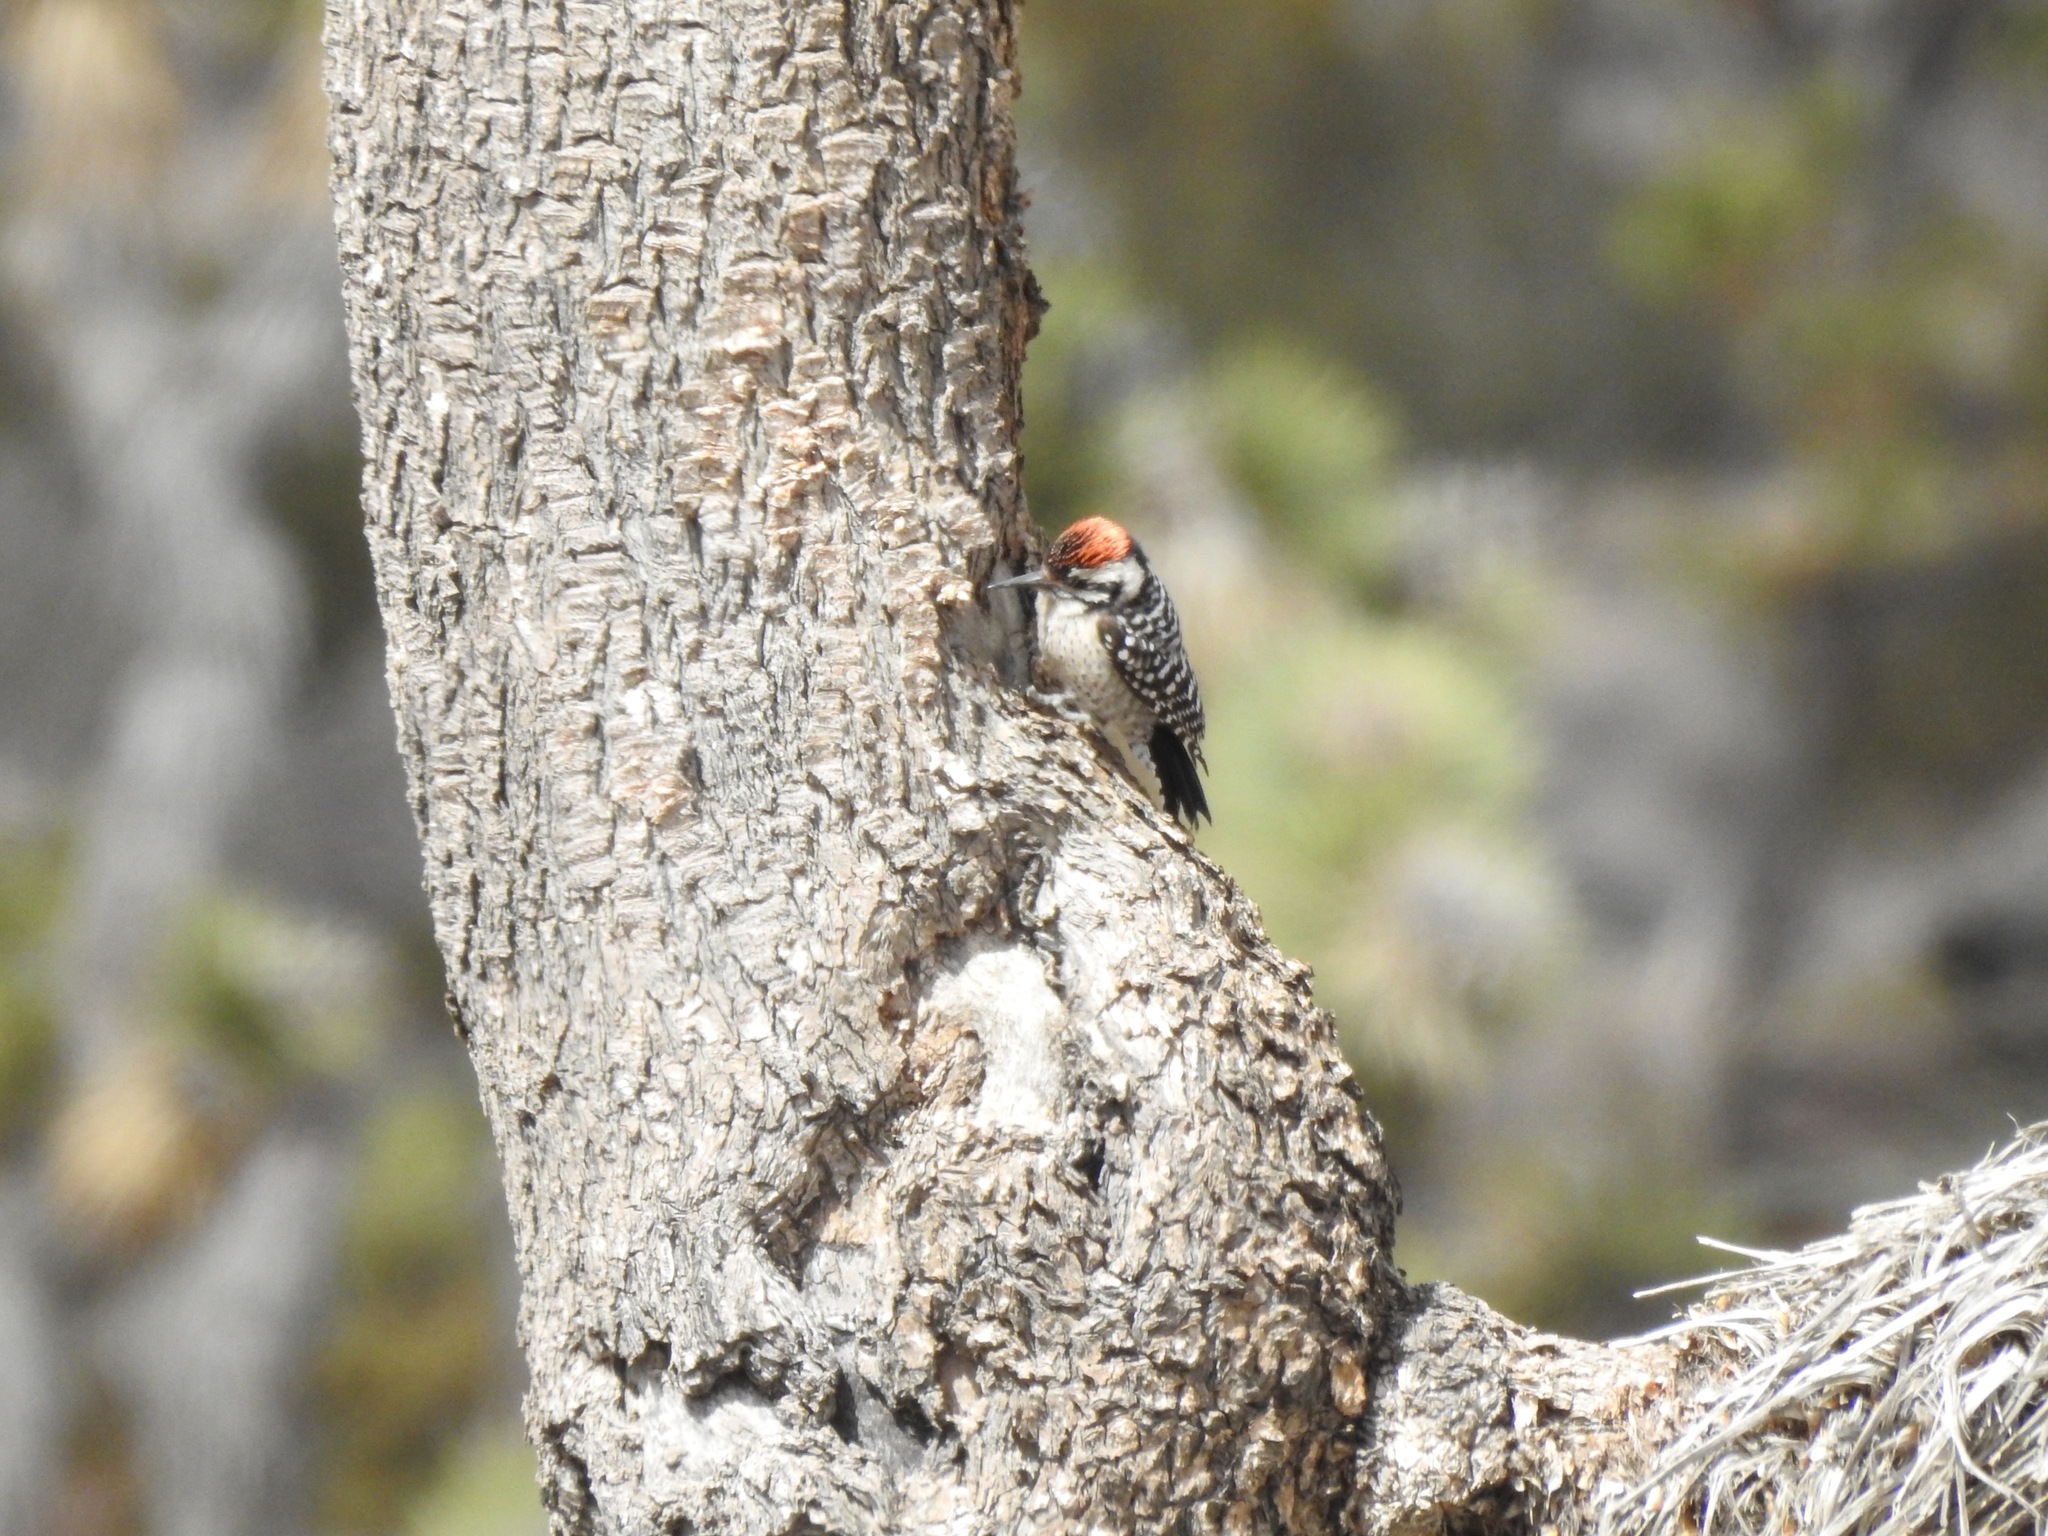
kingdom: Animalia
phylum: Chordata
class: Aves
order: Piciformes
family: Picidae
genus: Dryobates
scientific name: Dryobates scalaris
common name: Ladder-backed woodpecker
